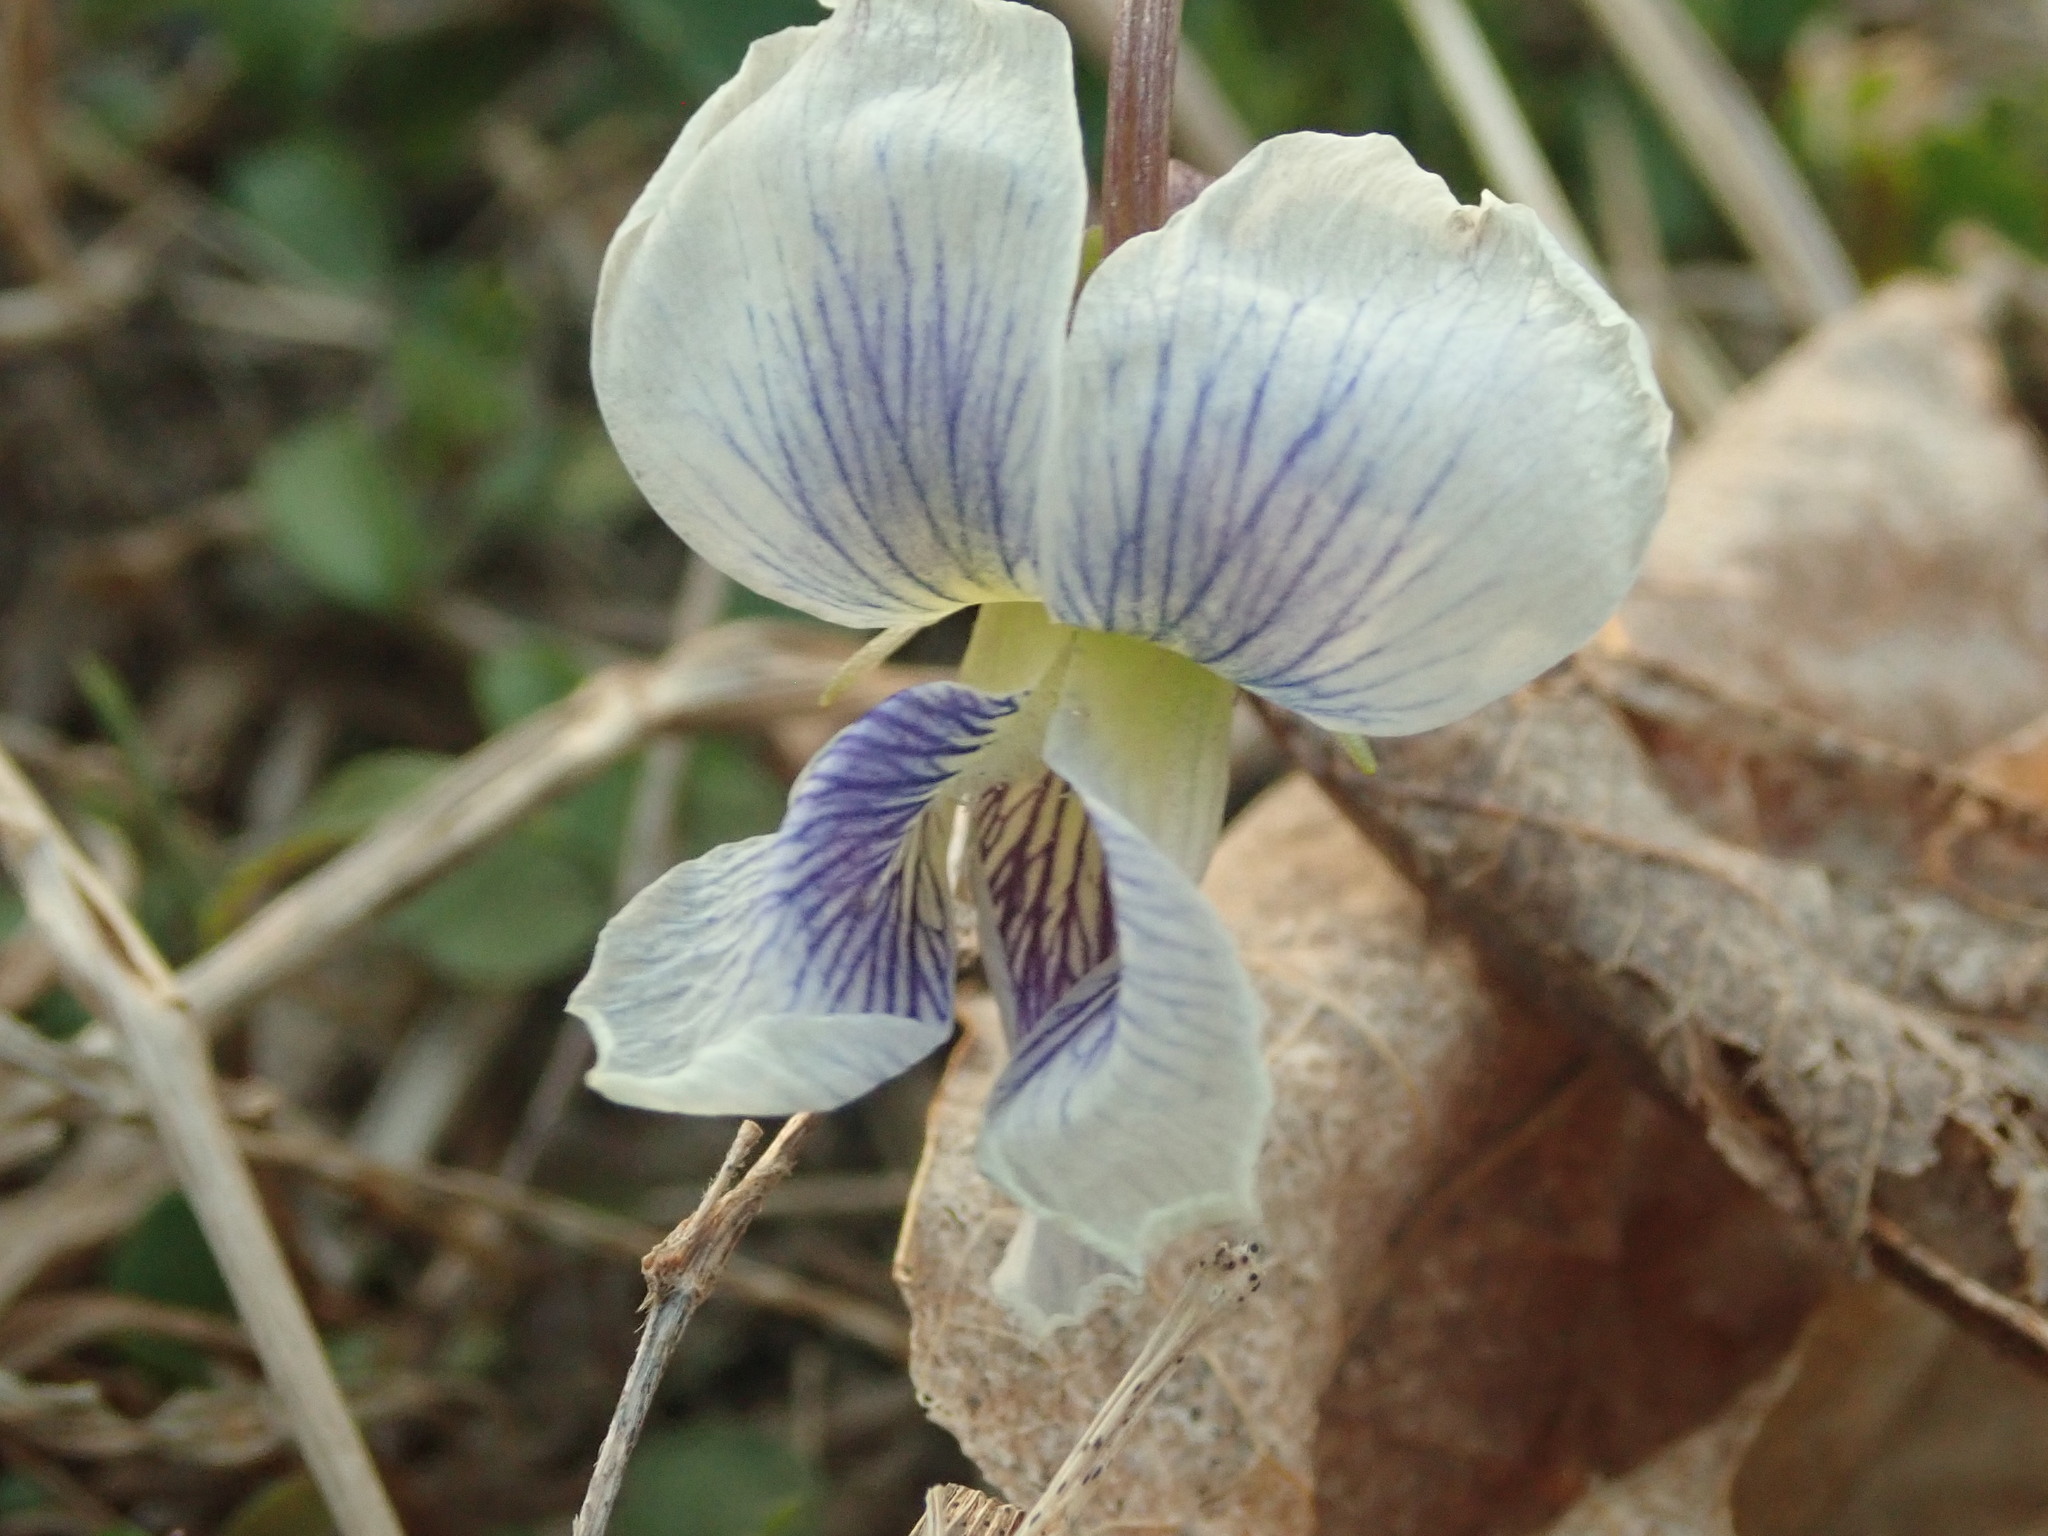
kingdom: Plantae
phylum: Tracheophyta
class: Magnoliopsida
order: Malpighiales
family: Violaceae
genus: Viola
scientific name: Viola sororia
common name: Dooryard violet
